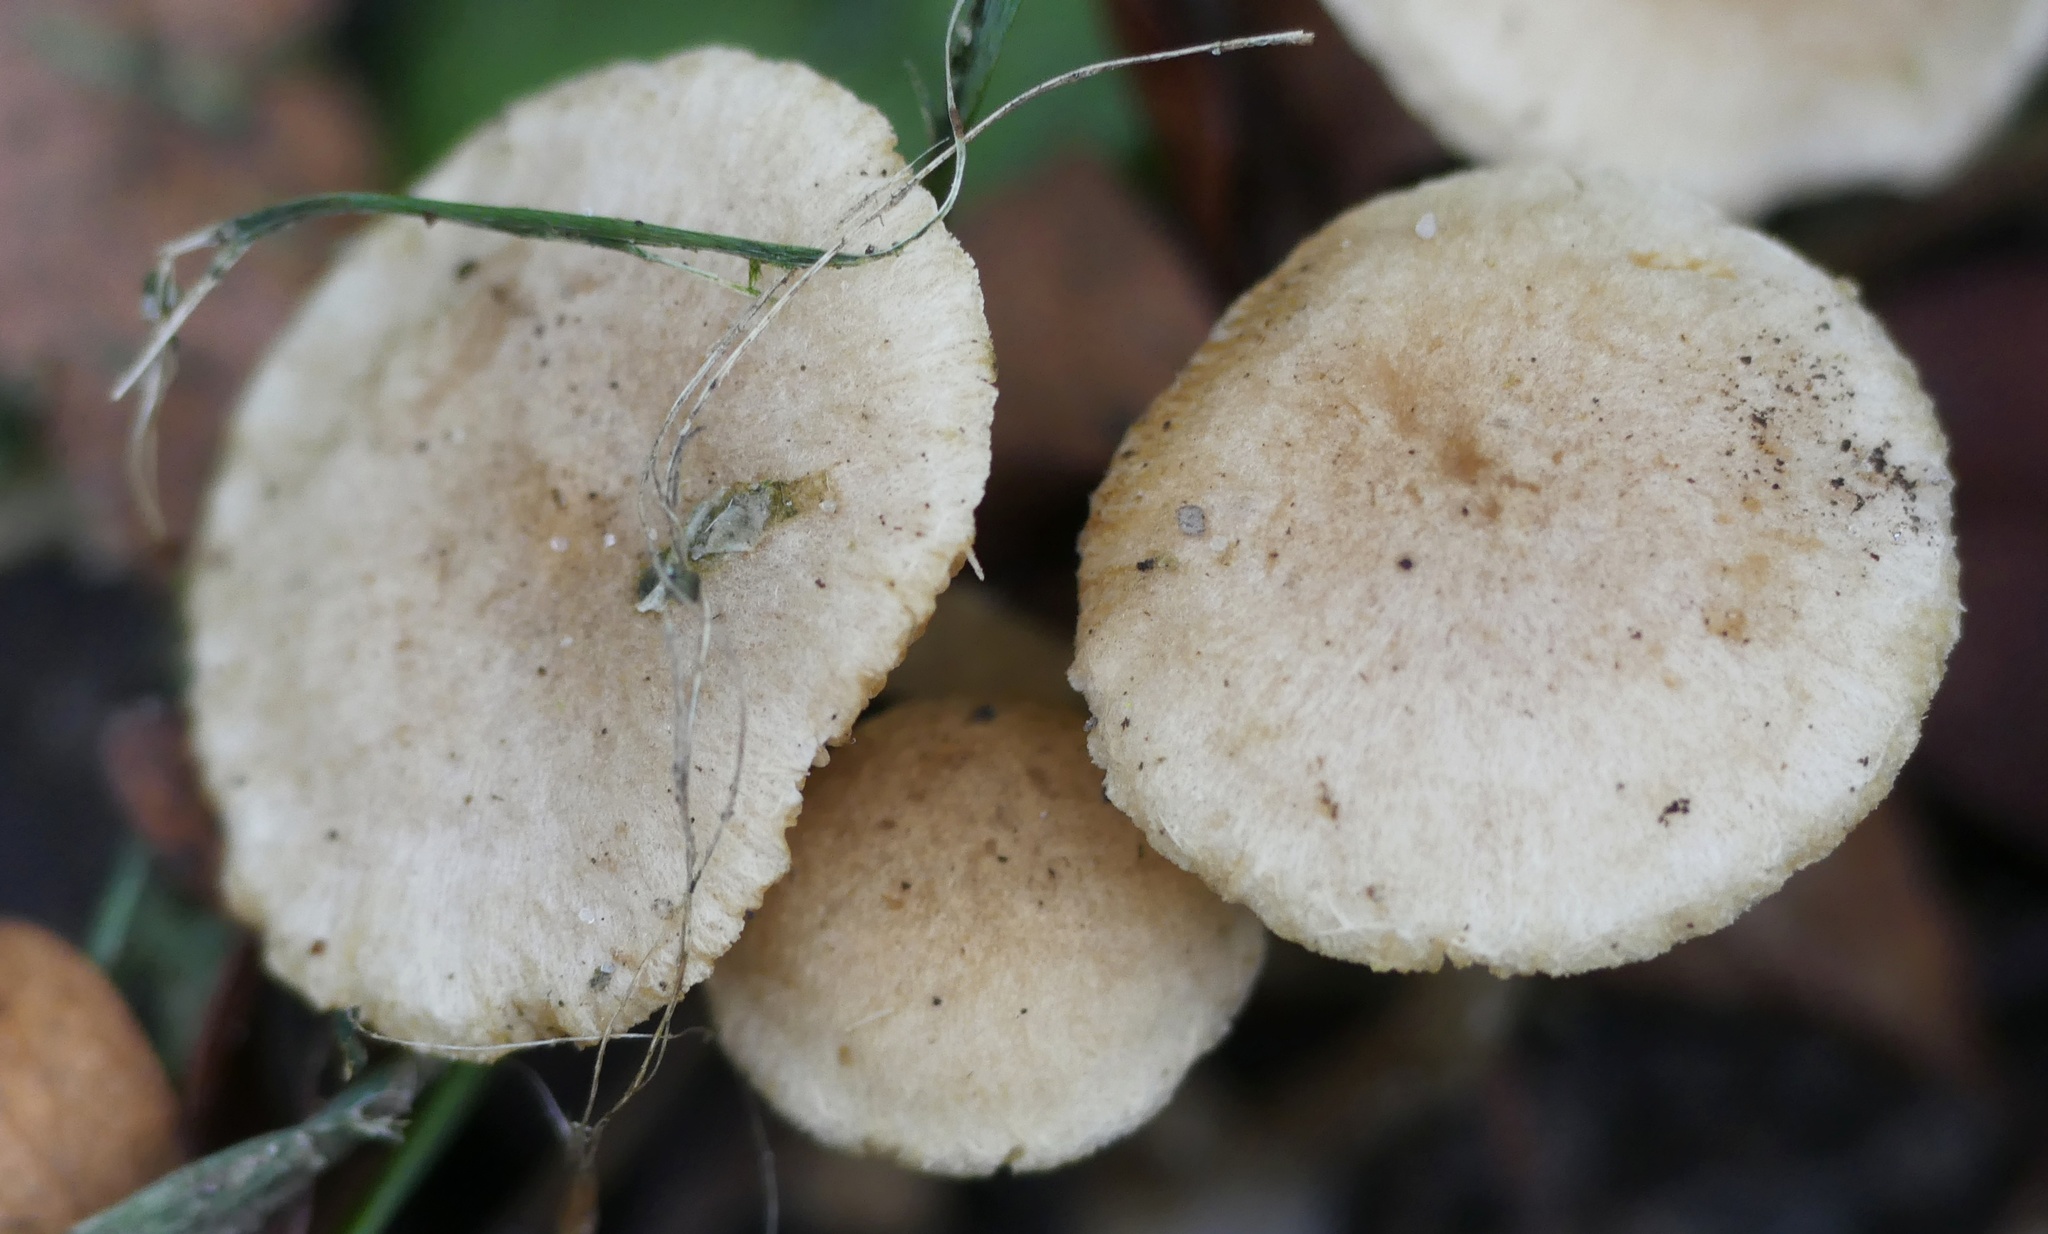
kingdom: Fungi
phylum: Basidiomycota
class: Agaricomycetes
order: Agaricales
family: Tubariaceae
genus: Tubaria
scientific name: Tubaria dispersa
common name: Hawthorn twiglet
